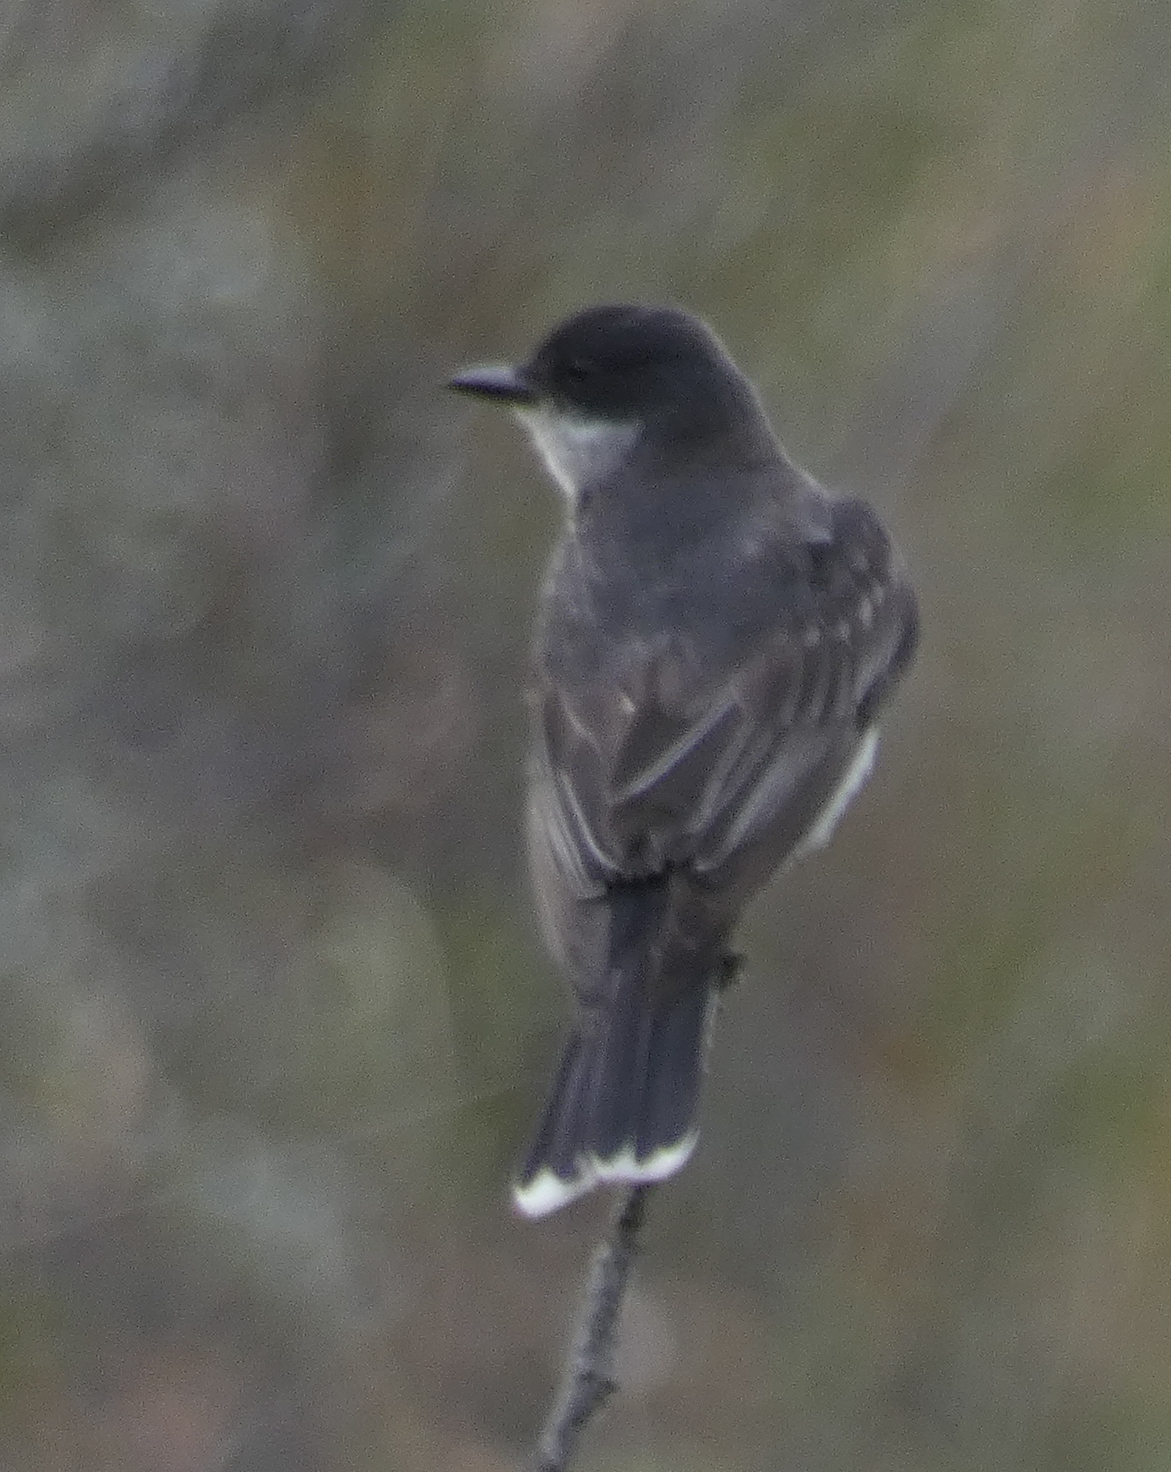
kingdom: Animalia
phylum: Chordata
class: Aves
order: Passeriformes
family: Tyrannidae
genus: Tyrannus
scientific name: Tyrannus tyrannus
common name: Eastern kingbird
